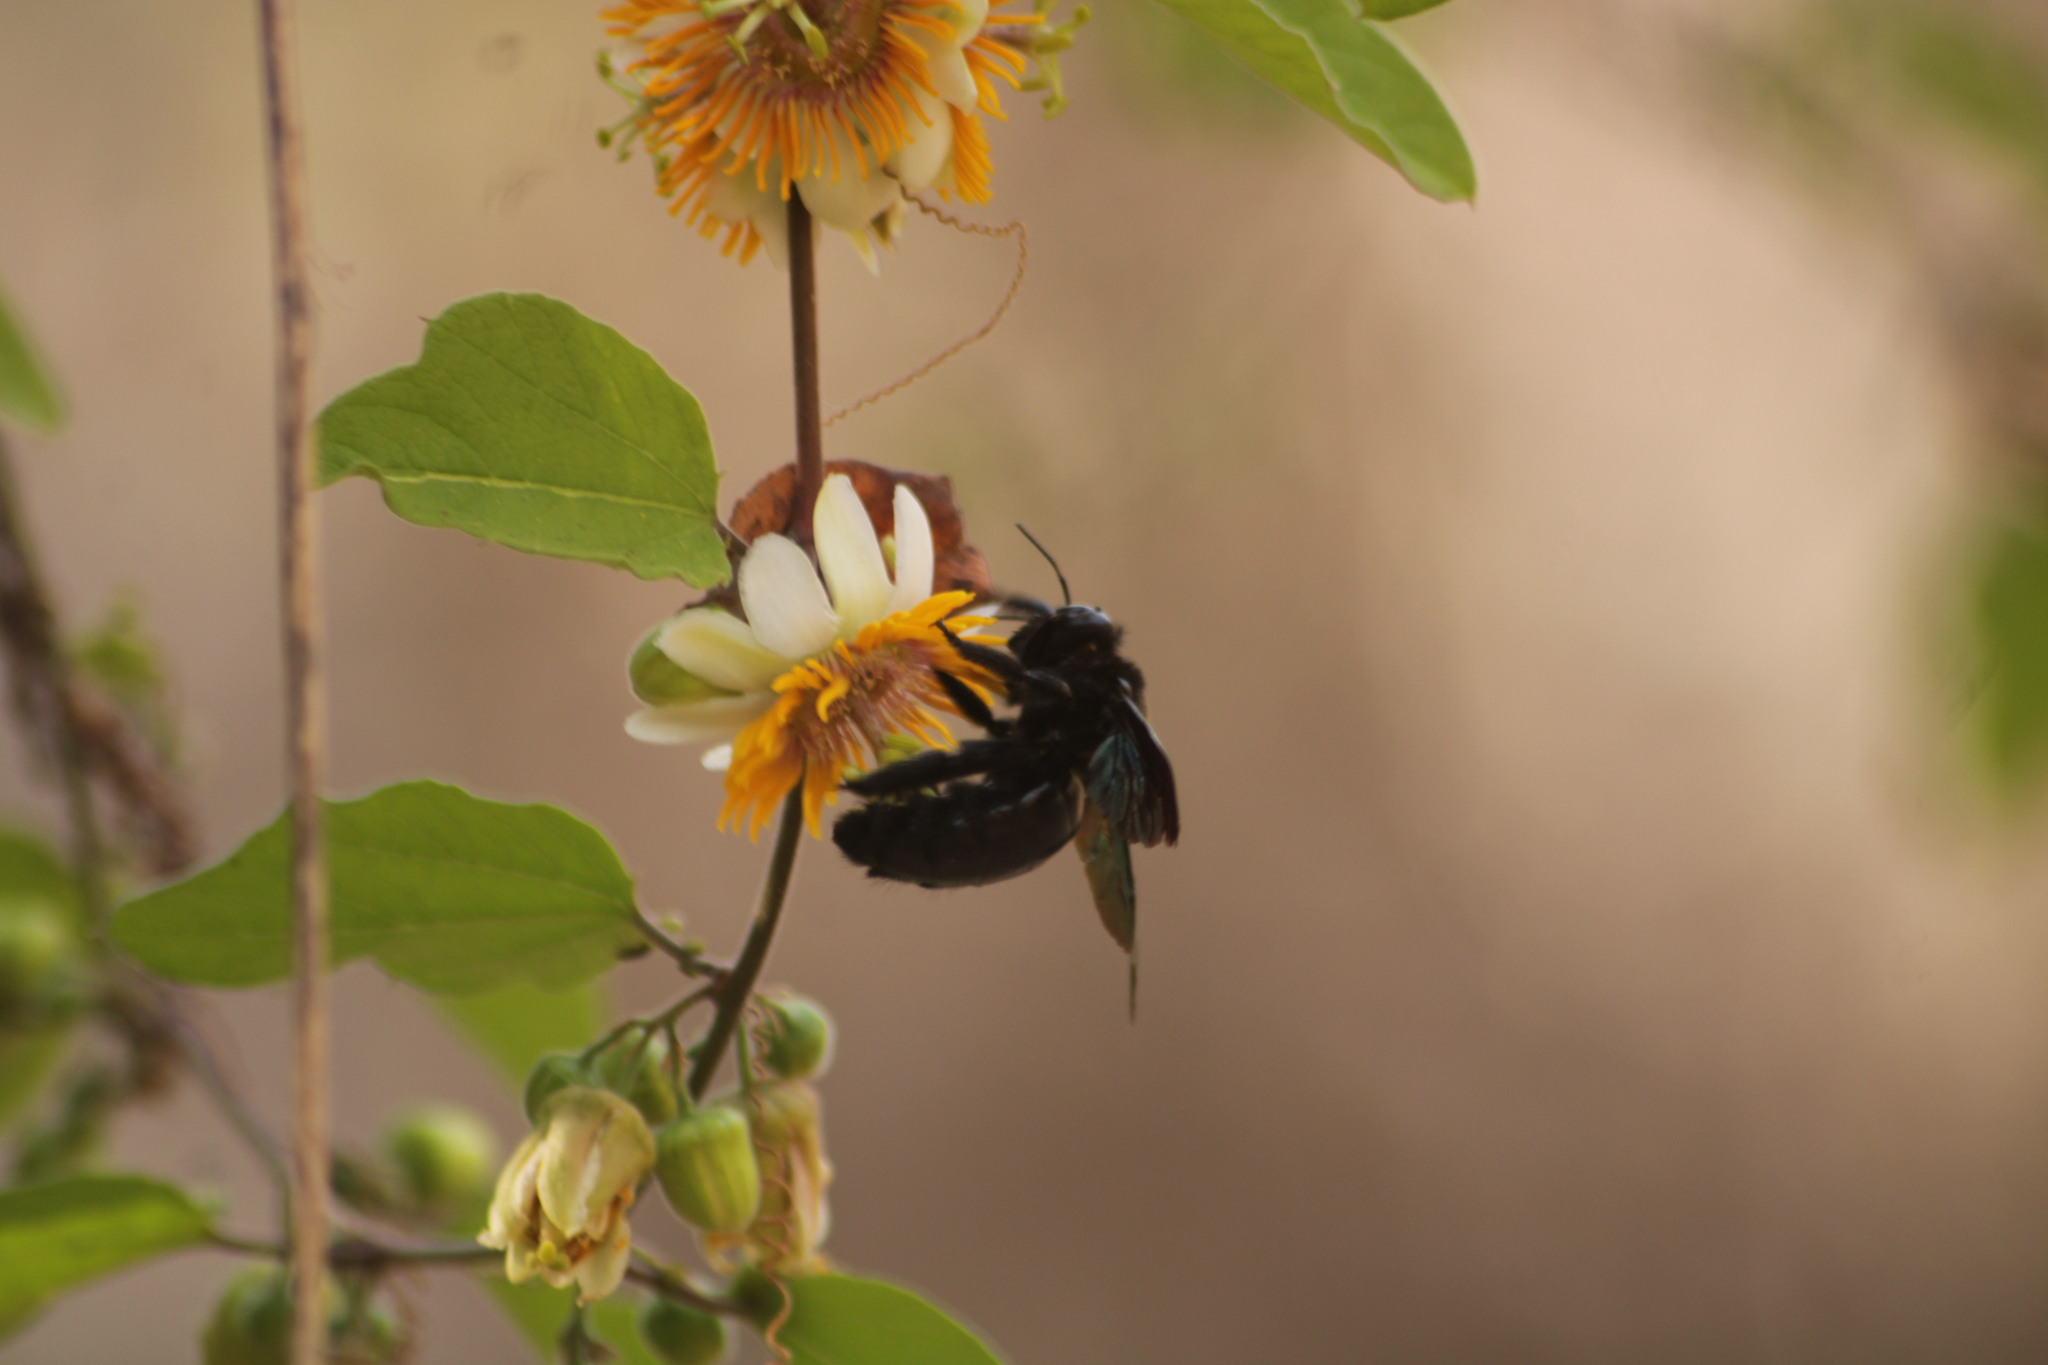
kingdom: Animalia
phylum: Arthropoda
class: Insecta
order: Hymenoptera
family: Apidae
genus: Xylocopa
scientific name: Xylocopa fimbriata
